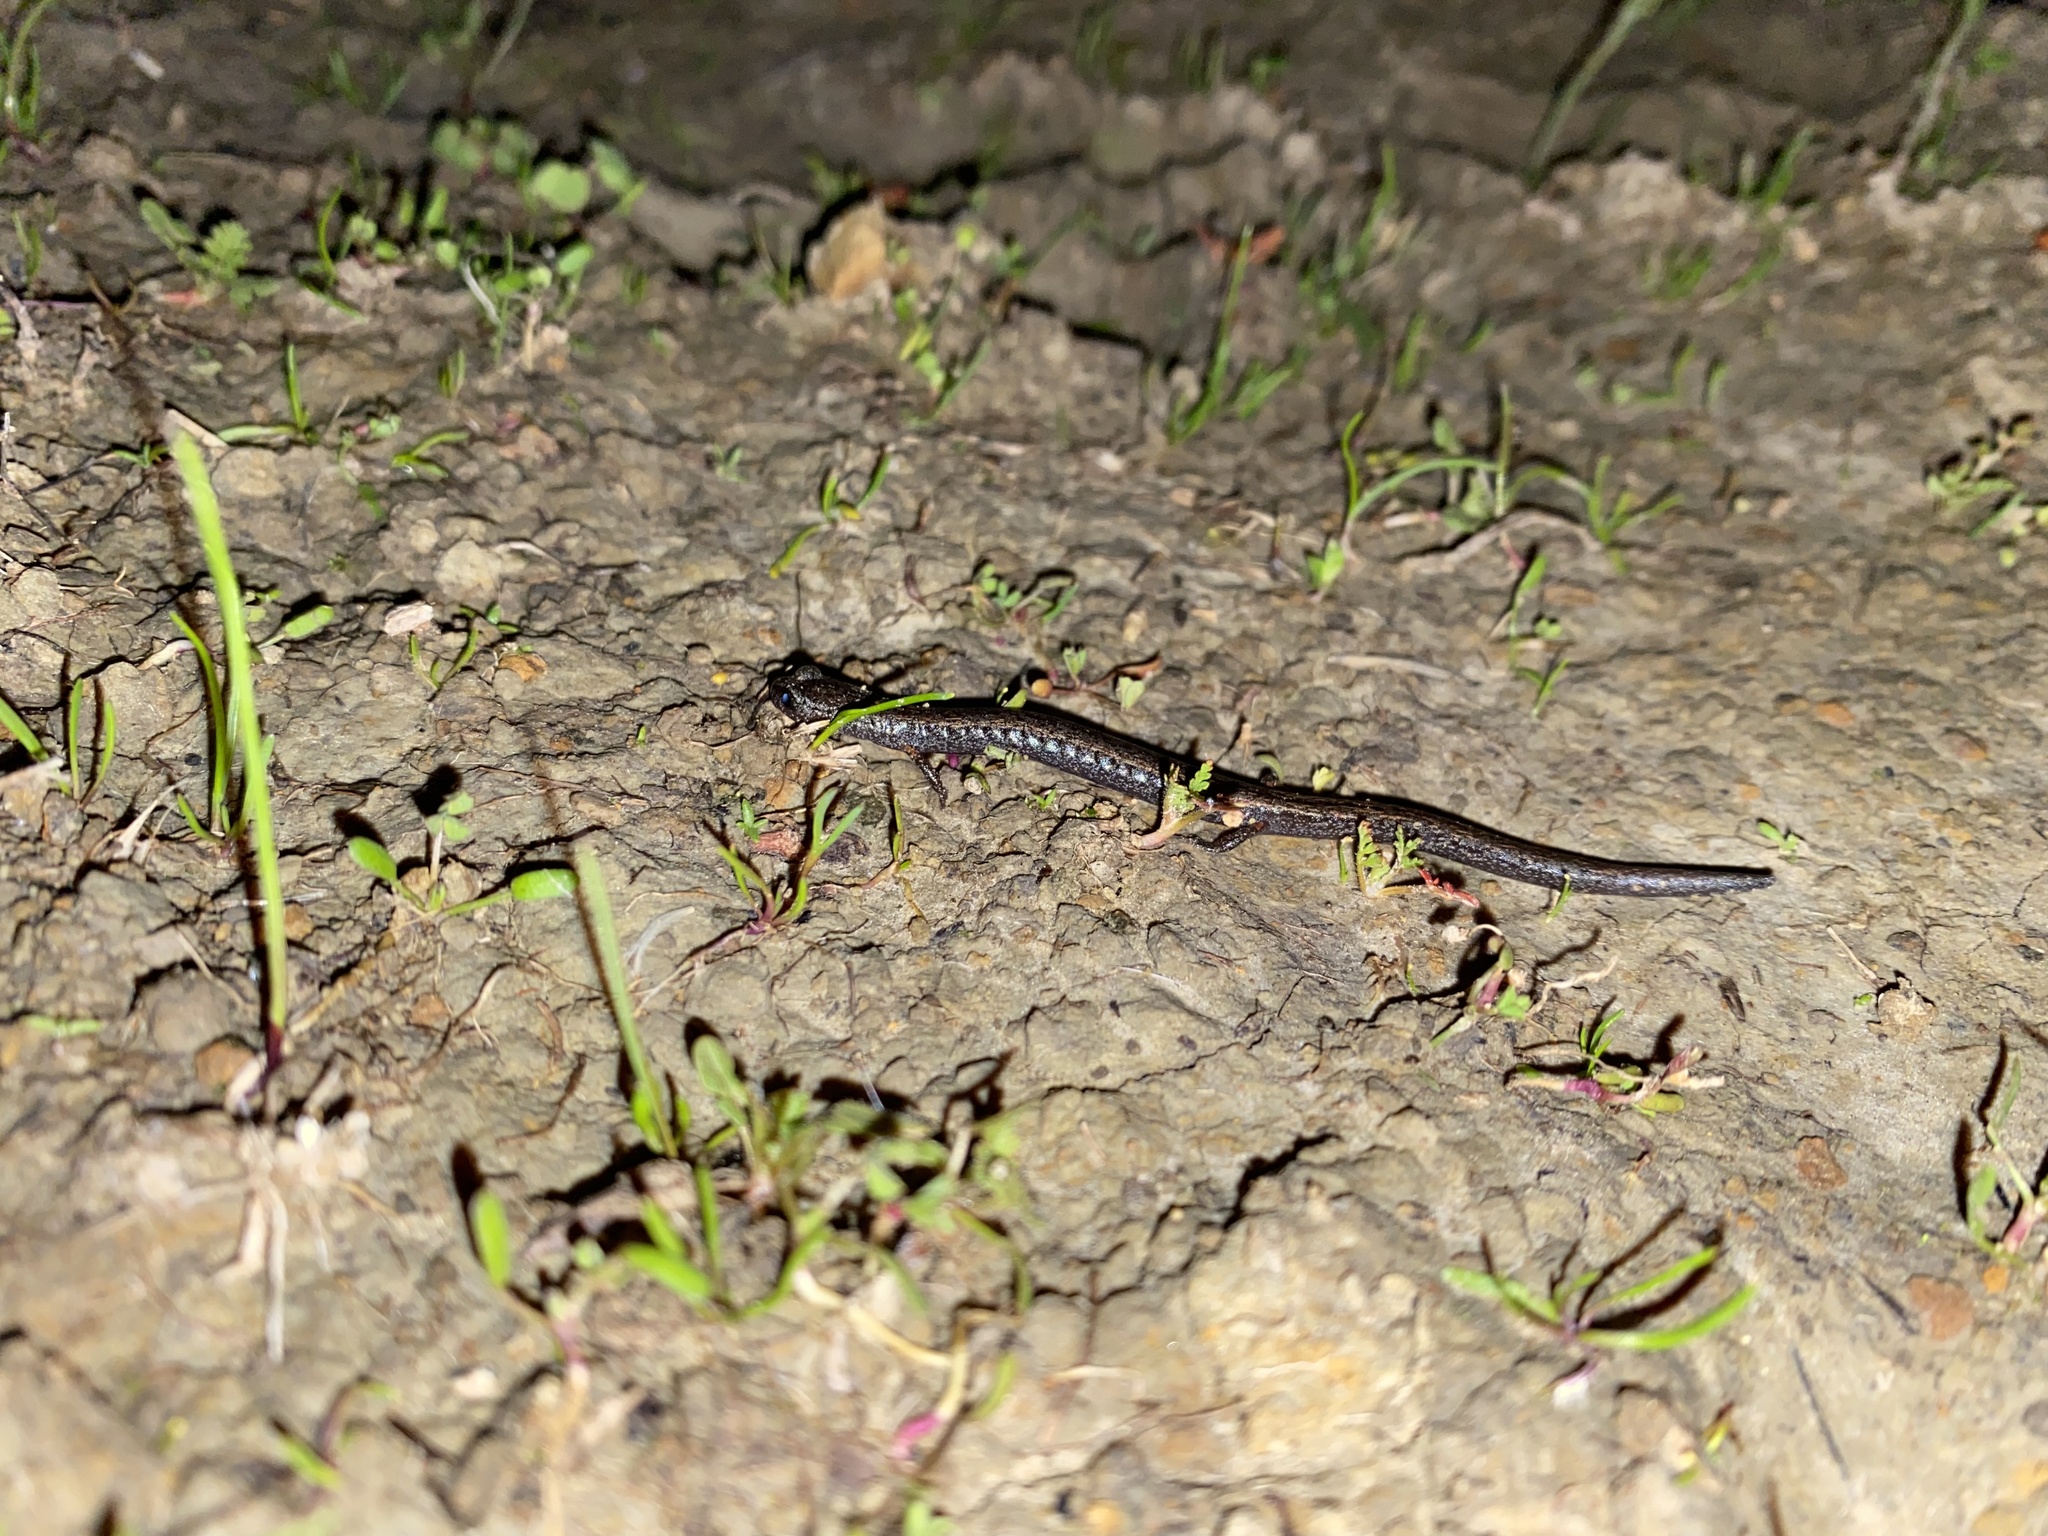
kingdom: Animalia
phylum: Chordata
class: Amphibia
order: Caudata
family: Plethodontidae
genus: Batrachoseps
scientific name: Batrachoseps attenuatus
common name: California slender salamander
